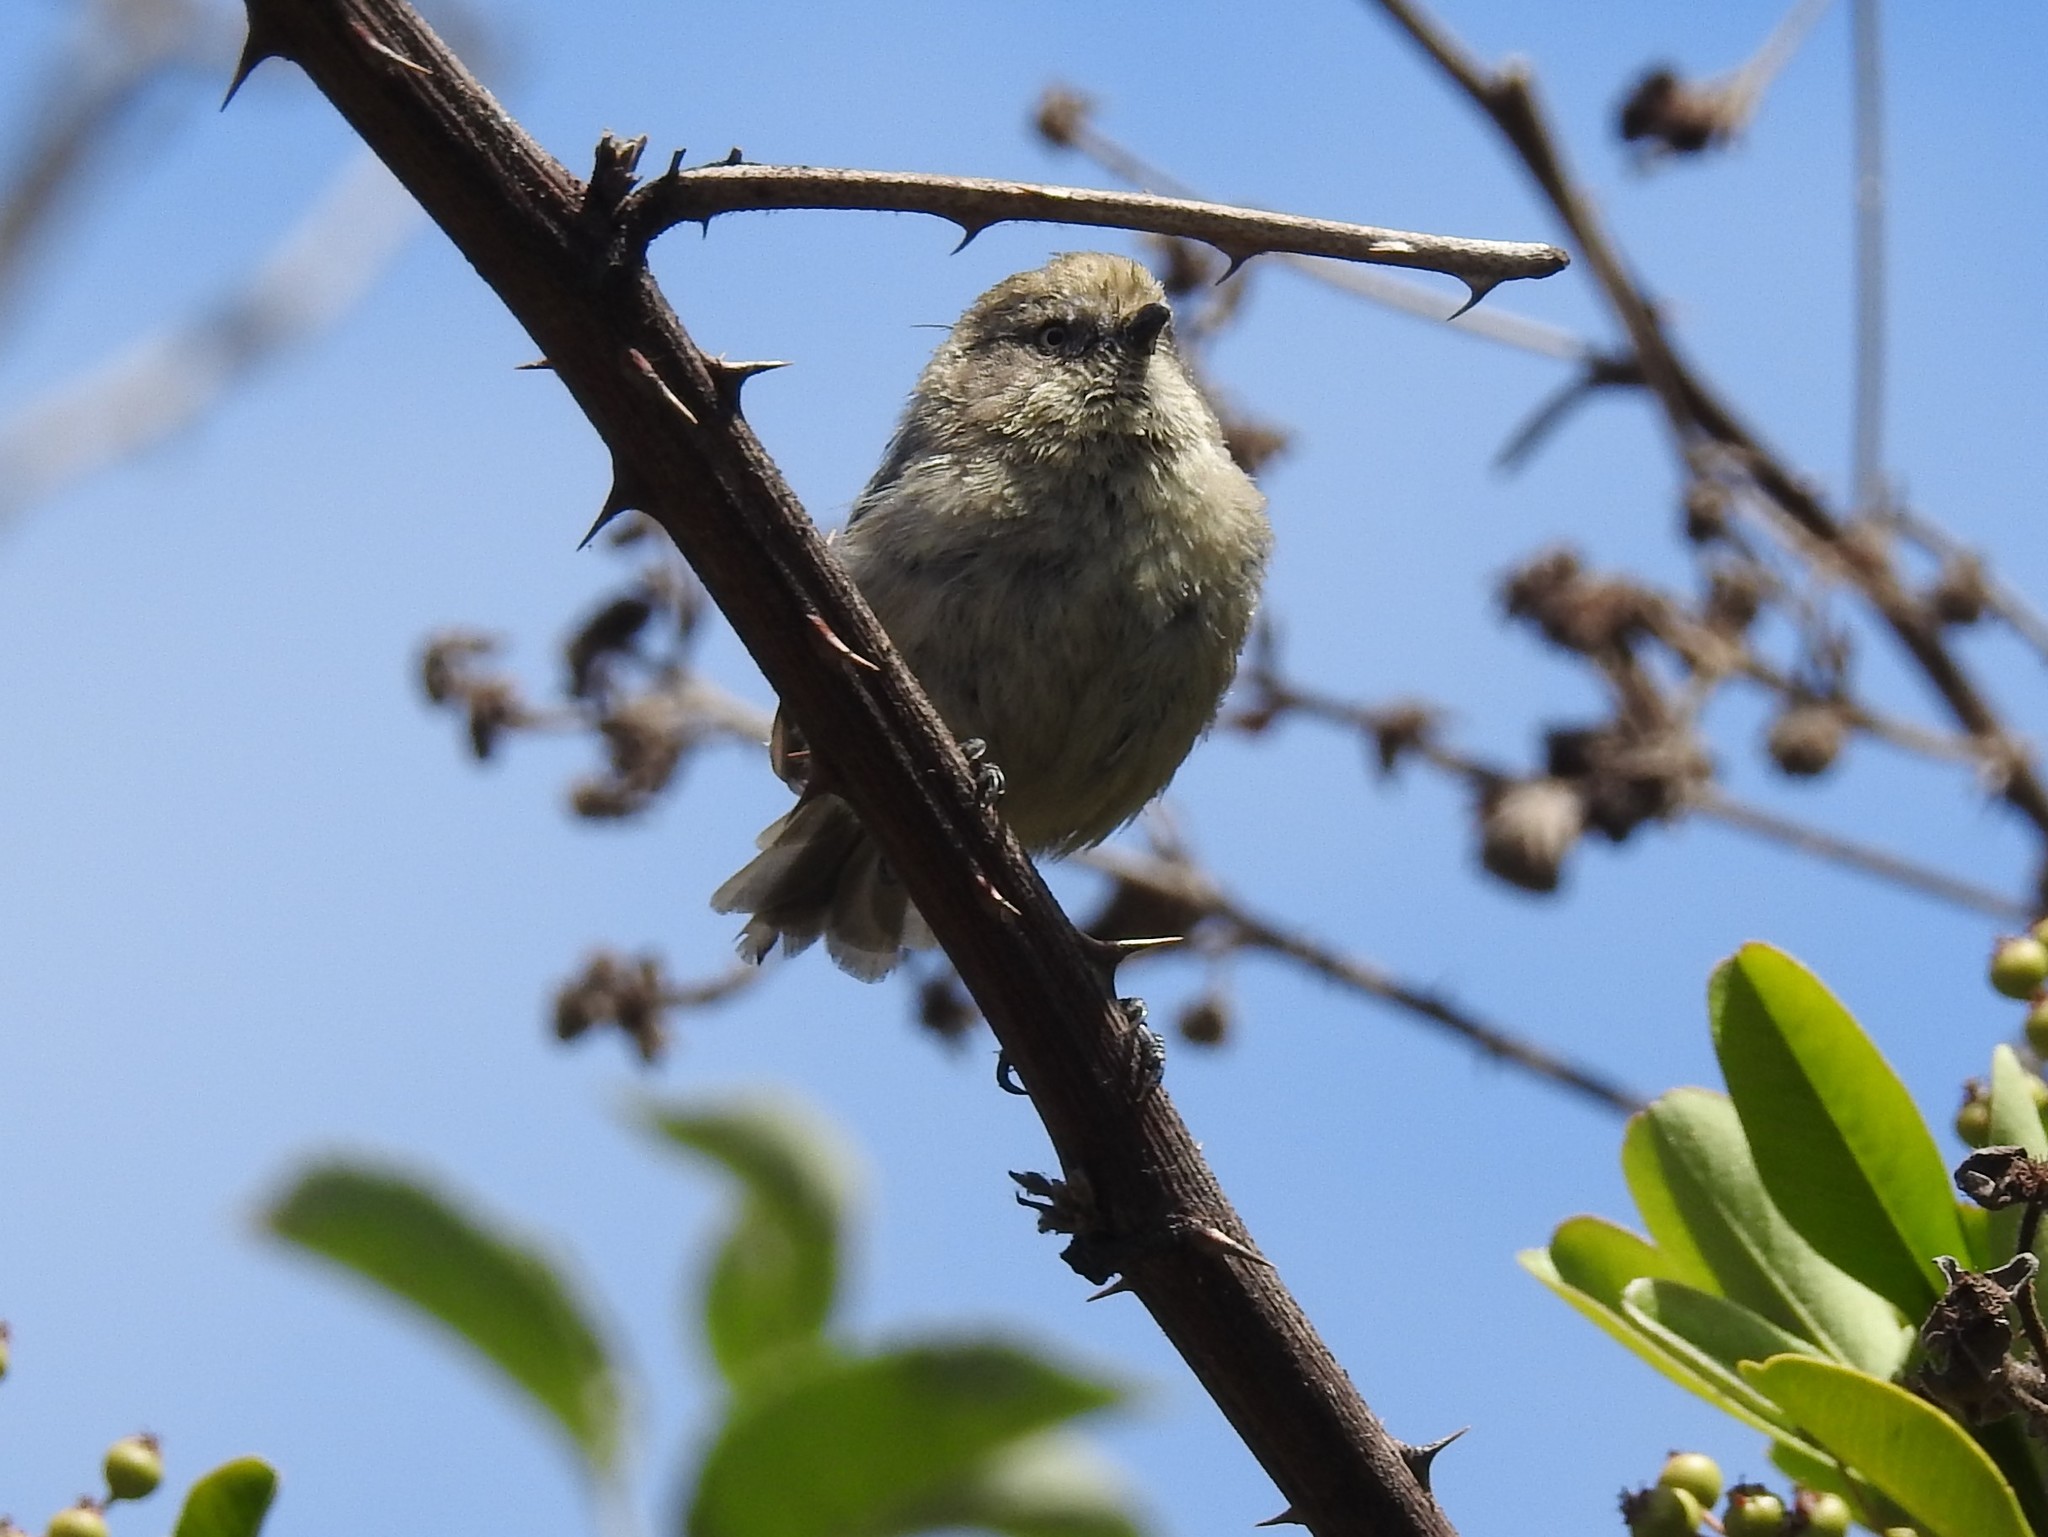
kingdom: Animalia
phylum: Chordata
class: Aves
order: Passeriformes
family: Aegithalidae
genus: Psaltriparus
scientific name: Psaltriparus minimus
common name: American bushtit
